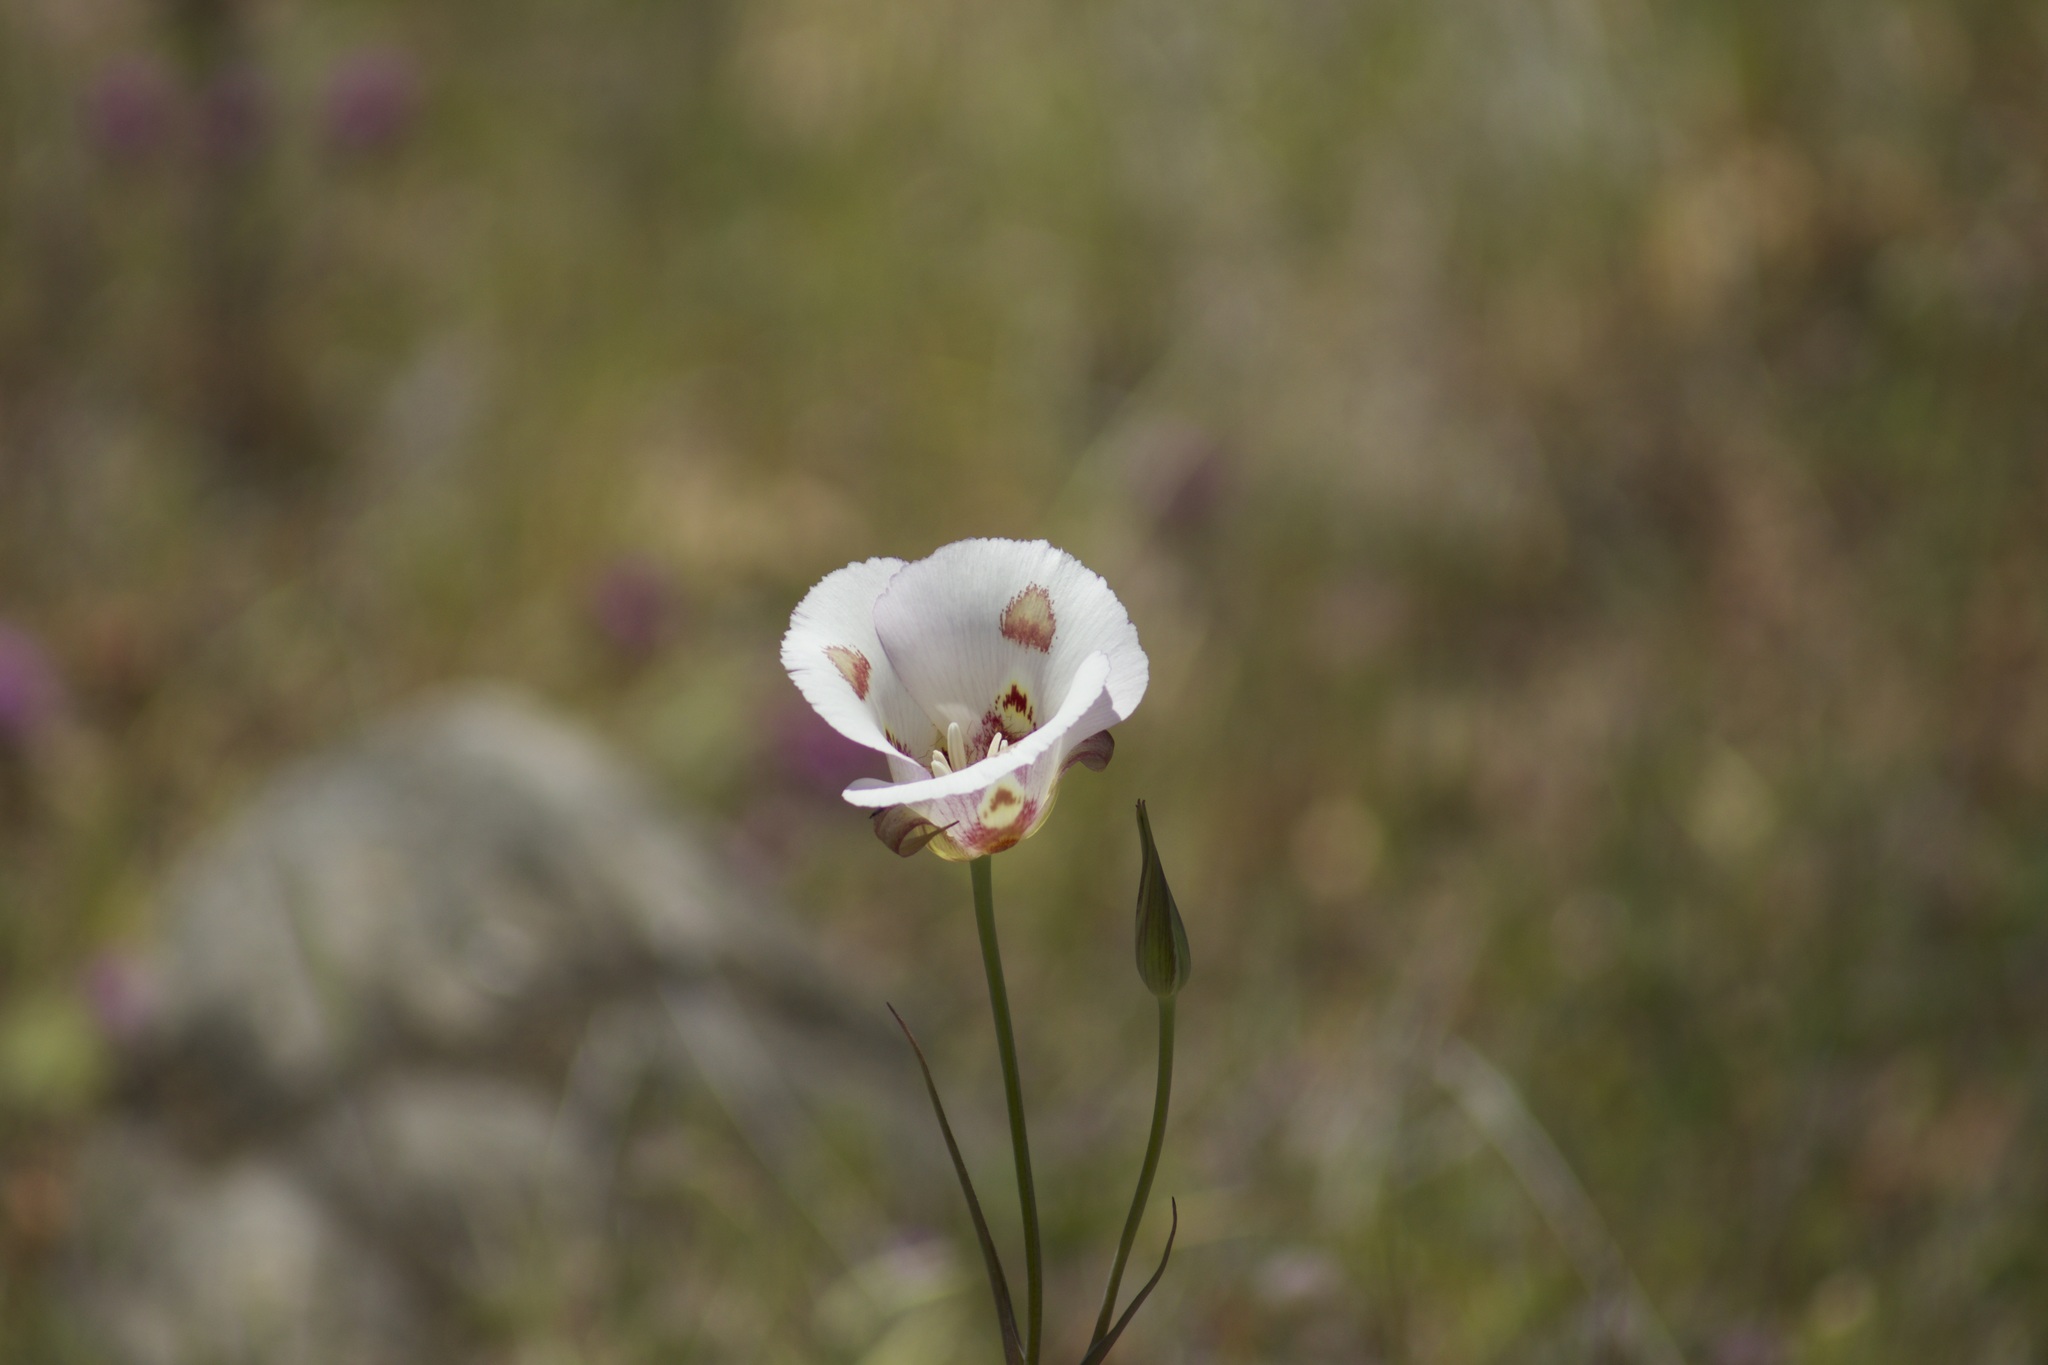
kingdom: Plantae
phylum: Tracheophyta
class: Liliopsida
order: Liliales
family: Liliaceae
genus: Calochortus
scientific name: Calochortus venustus
